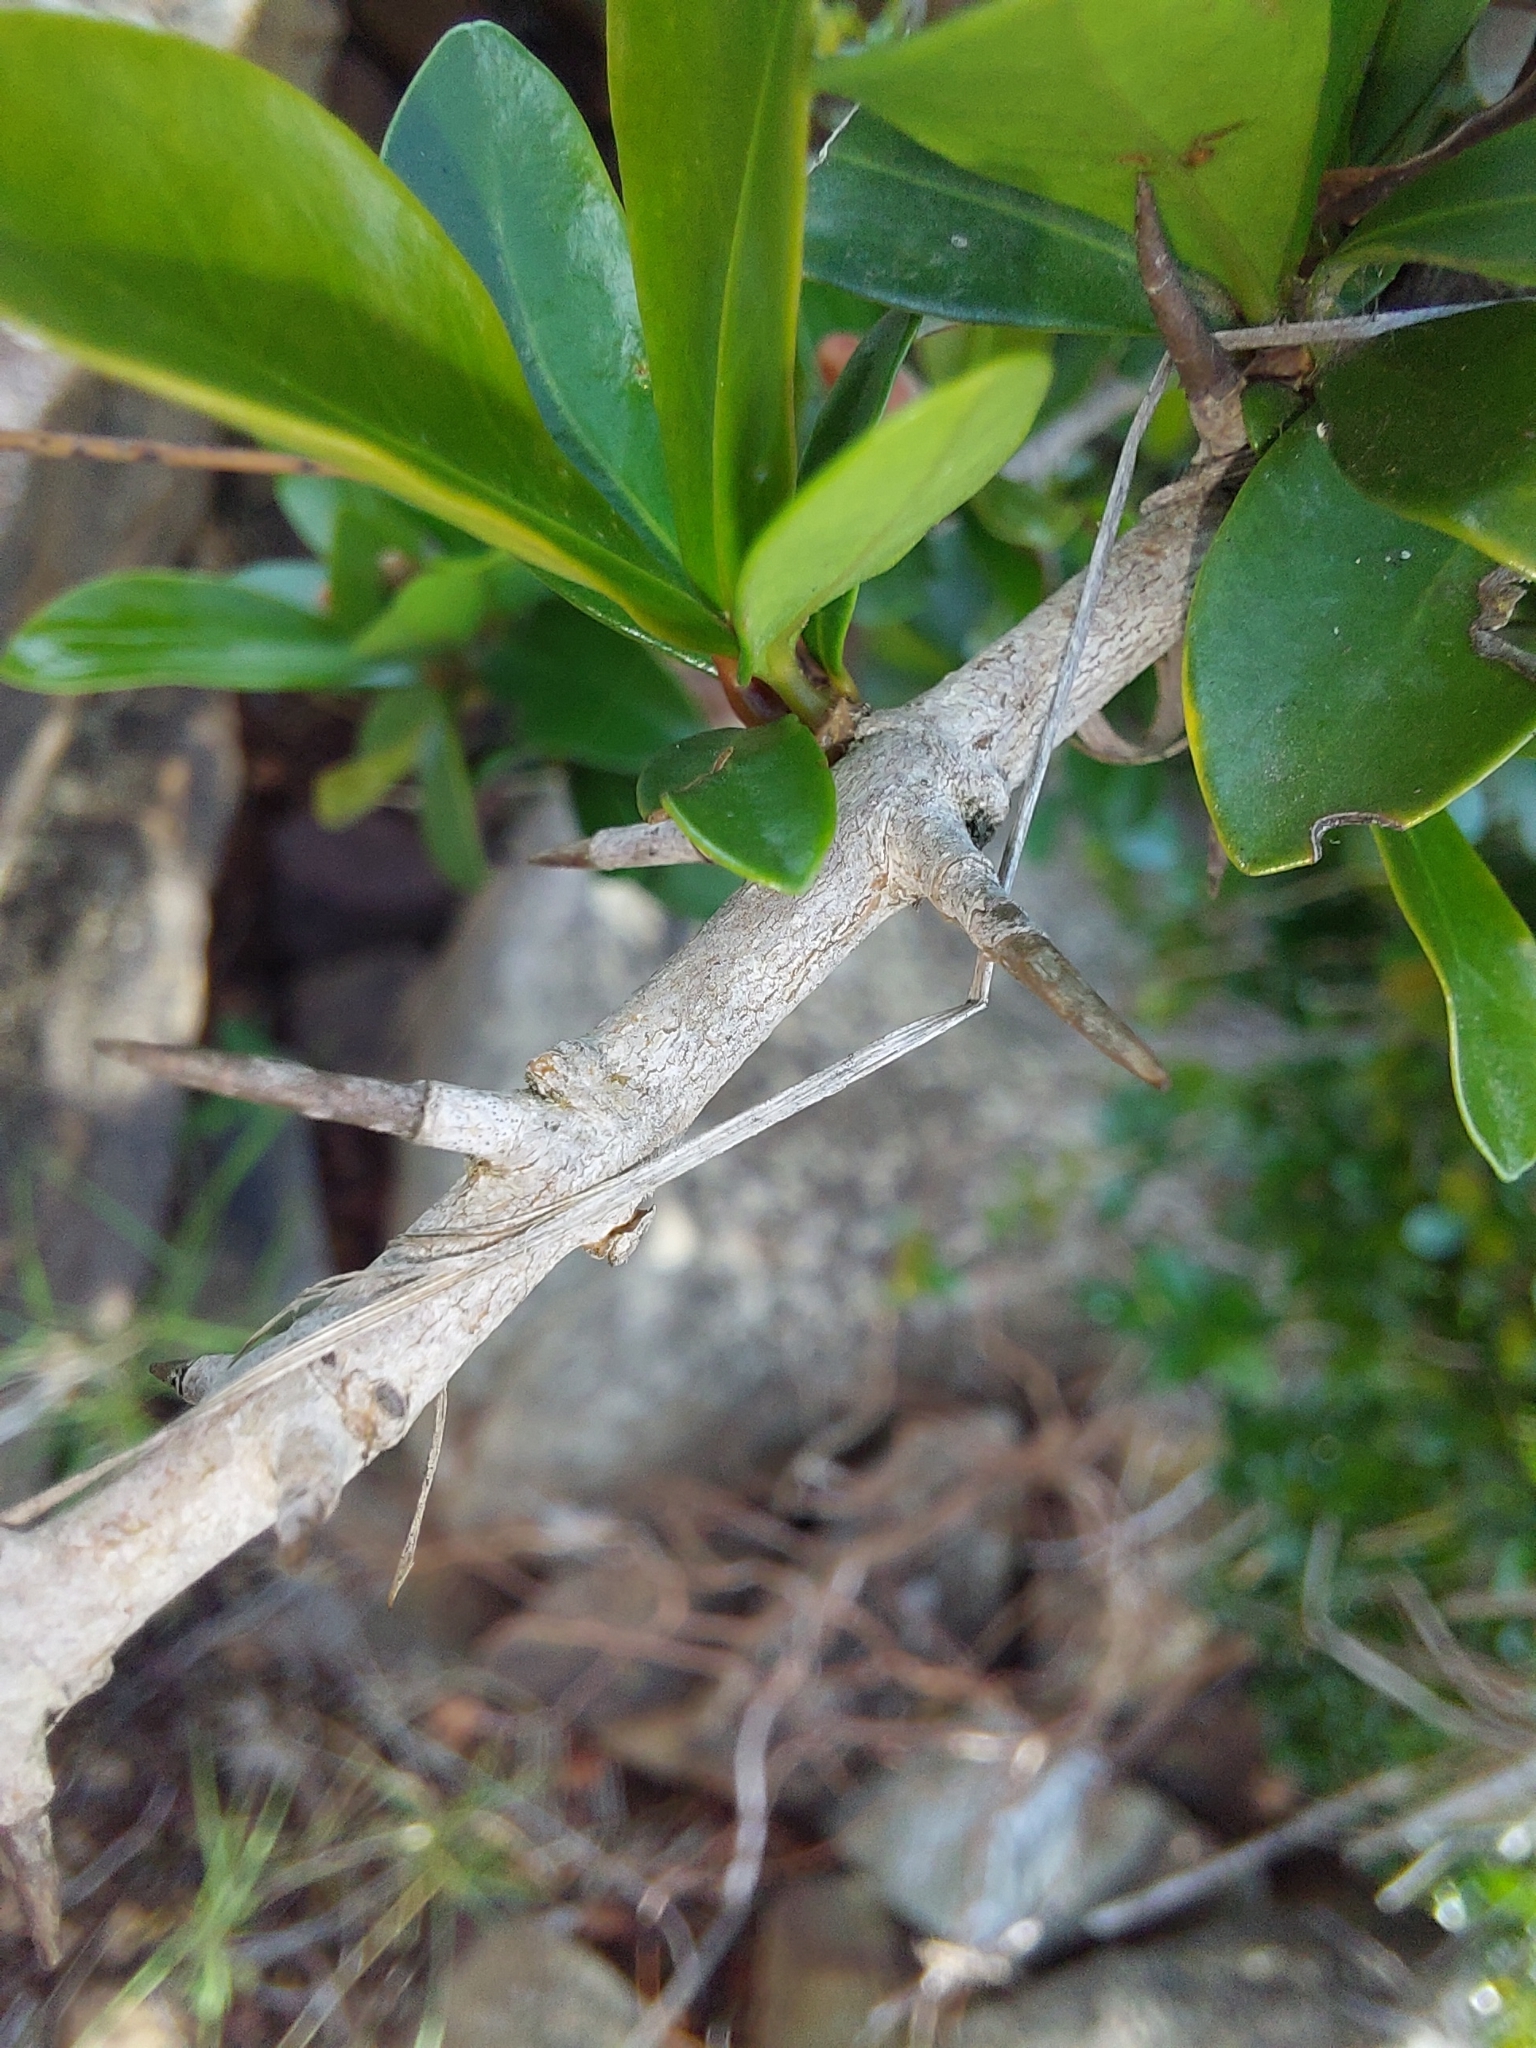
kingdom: Plantae
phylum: Tracheophyta
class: Magnoliopsida
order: Gentianales
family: Rubiaceae
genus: Hyperacanthus
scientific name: Hyperacanthus amoenus
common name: Spiny gardenia
